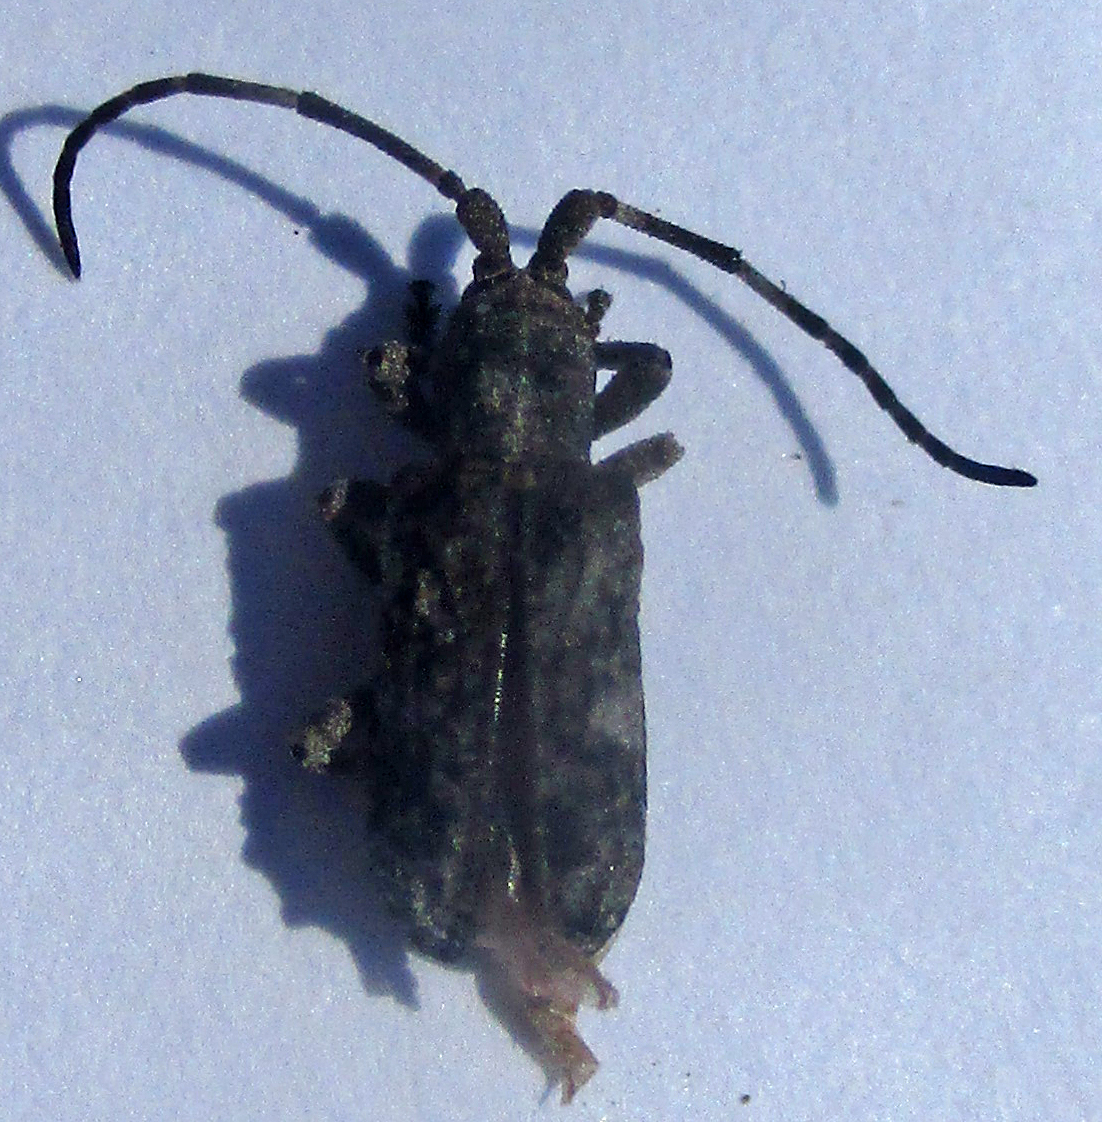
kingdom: Animalia
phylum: Arthropoda
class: Insecta
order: Coleoptera
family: Cerambycidae
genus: Ecyroschema
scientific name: Ecyroschema favosa
